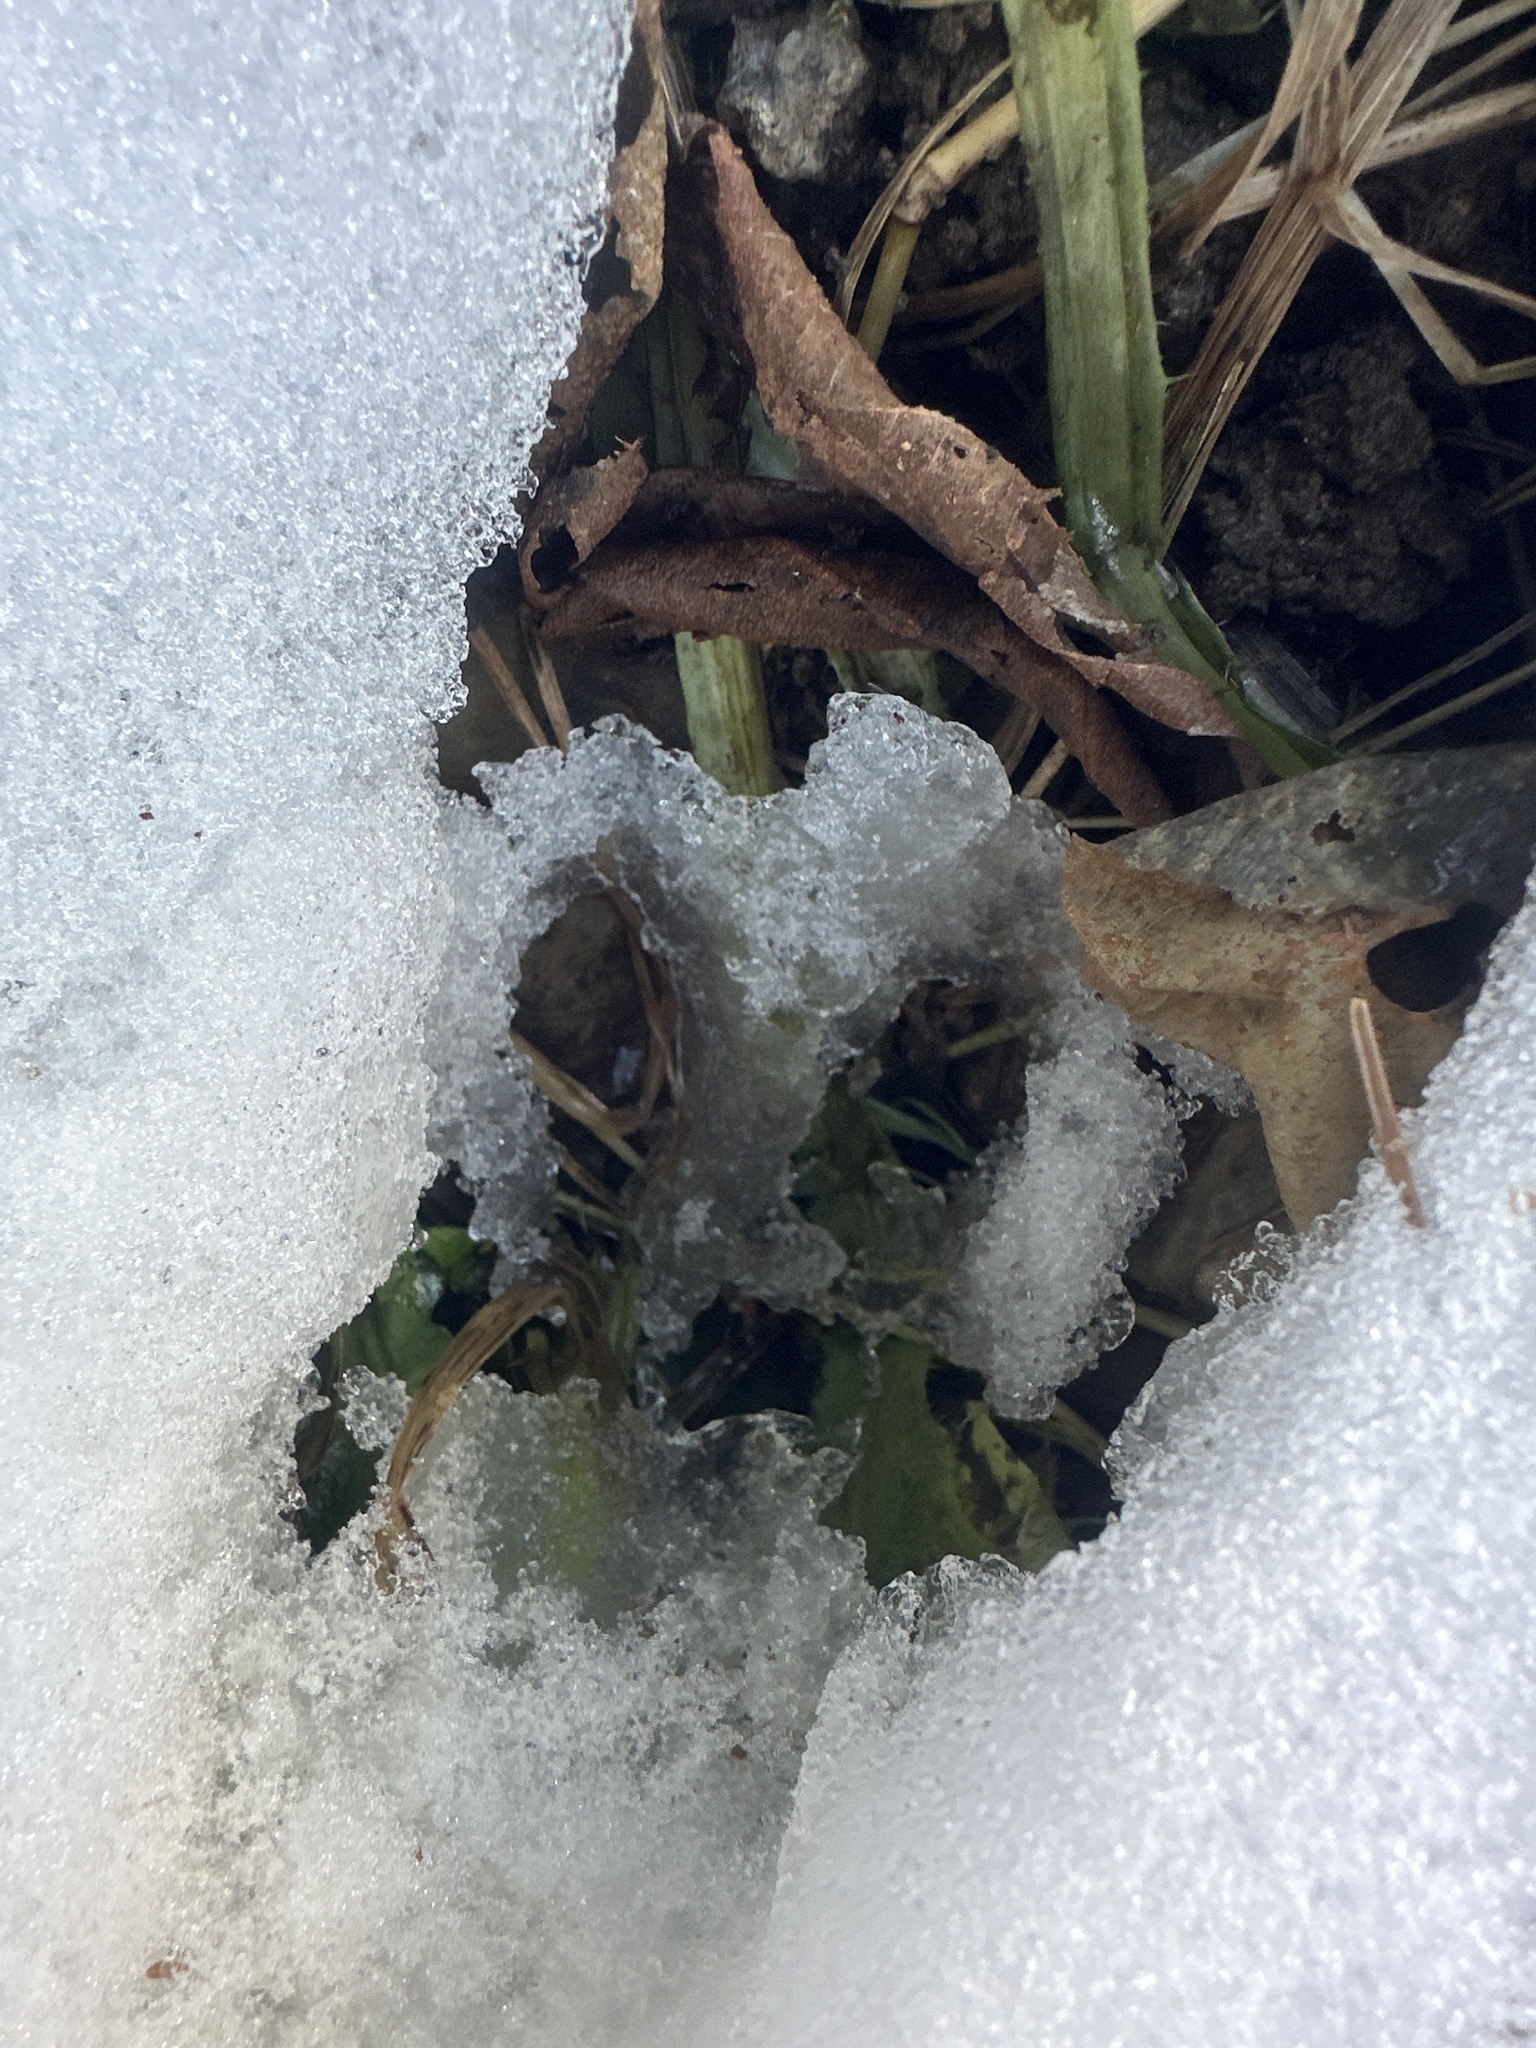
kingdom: Animalia
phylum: Chordata
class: Mammalia
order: Artiodactyla
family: Cervidae
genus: Capreolus
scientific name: Capreolus capreolus
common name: Western roe deer
